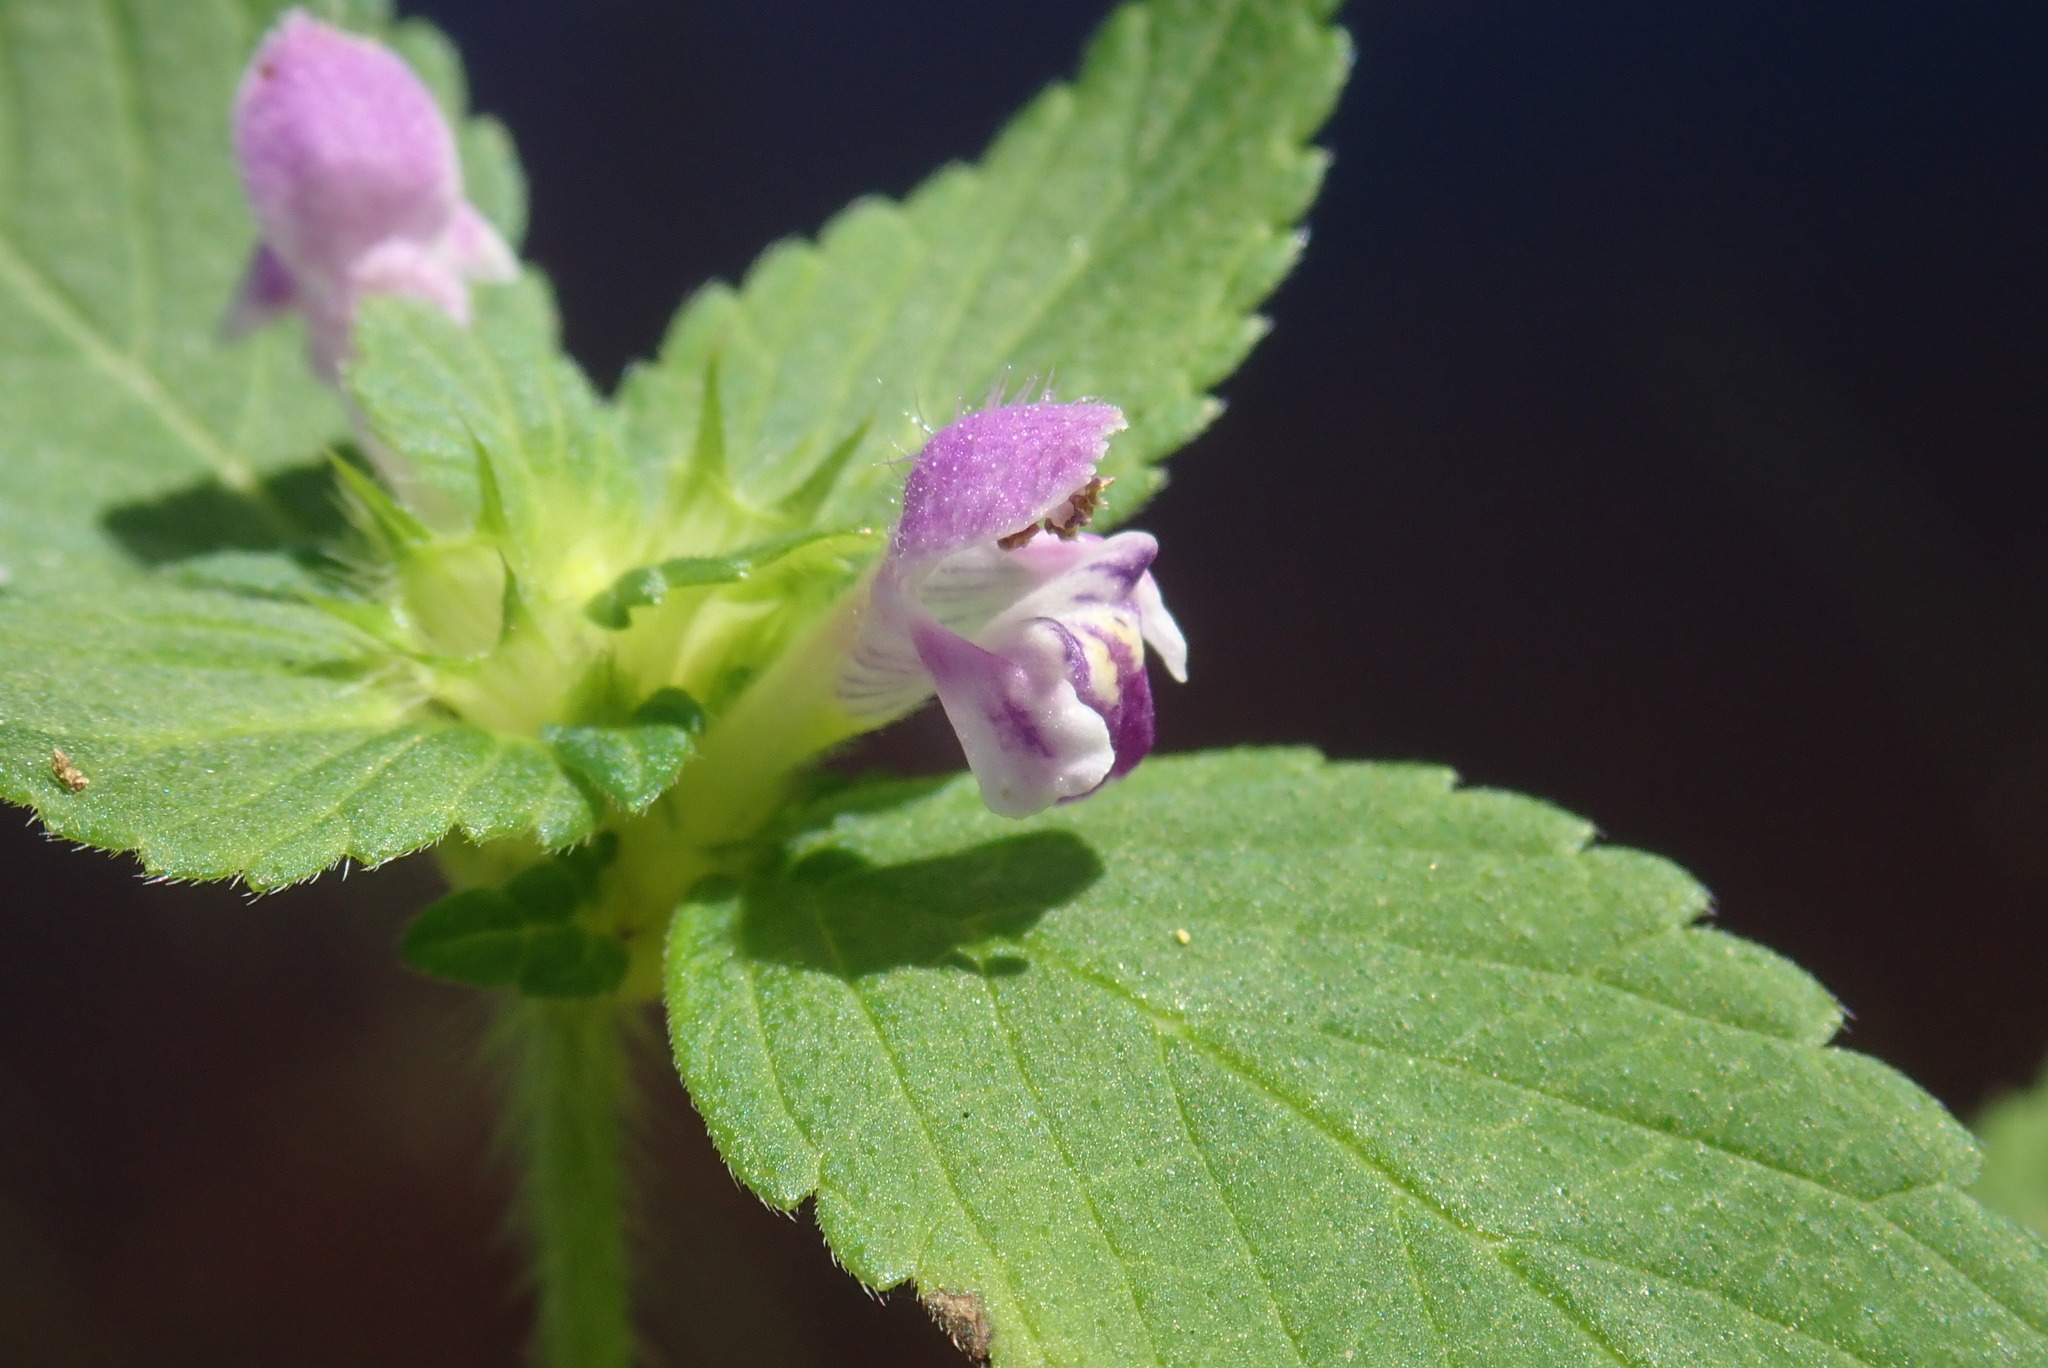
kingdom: Plantae
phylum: Tracheophyta
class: Magnoliopsida
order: Lamiales
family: Lamiaceae
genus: Galeopsis
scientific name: Galeopsis bifida
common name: Bifid hemp-nettle
